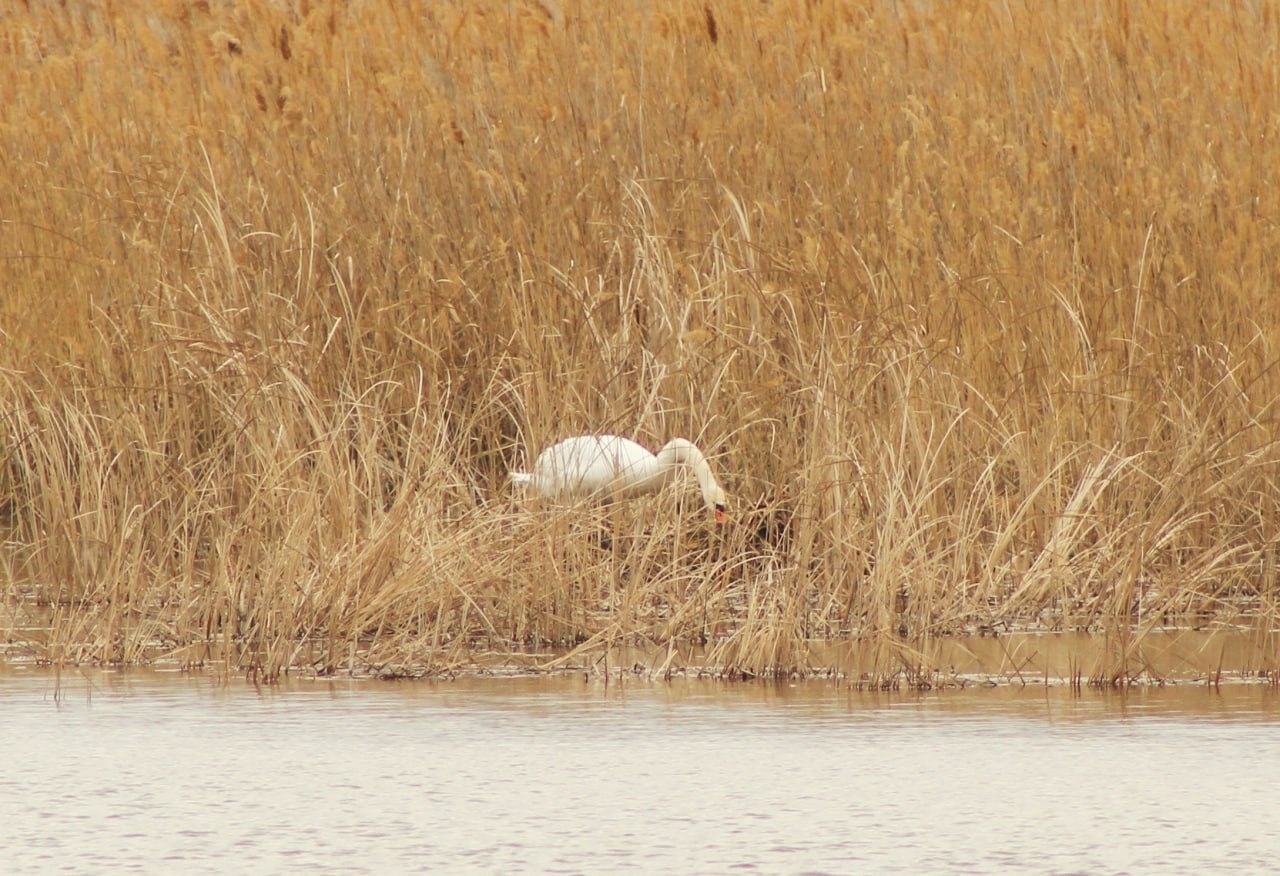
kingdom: Animalia
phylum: Chordata
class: Aves
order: Anseriformes
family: Anatidae
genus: Cygnus
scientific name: Cygnus olor
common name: Mute swan
